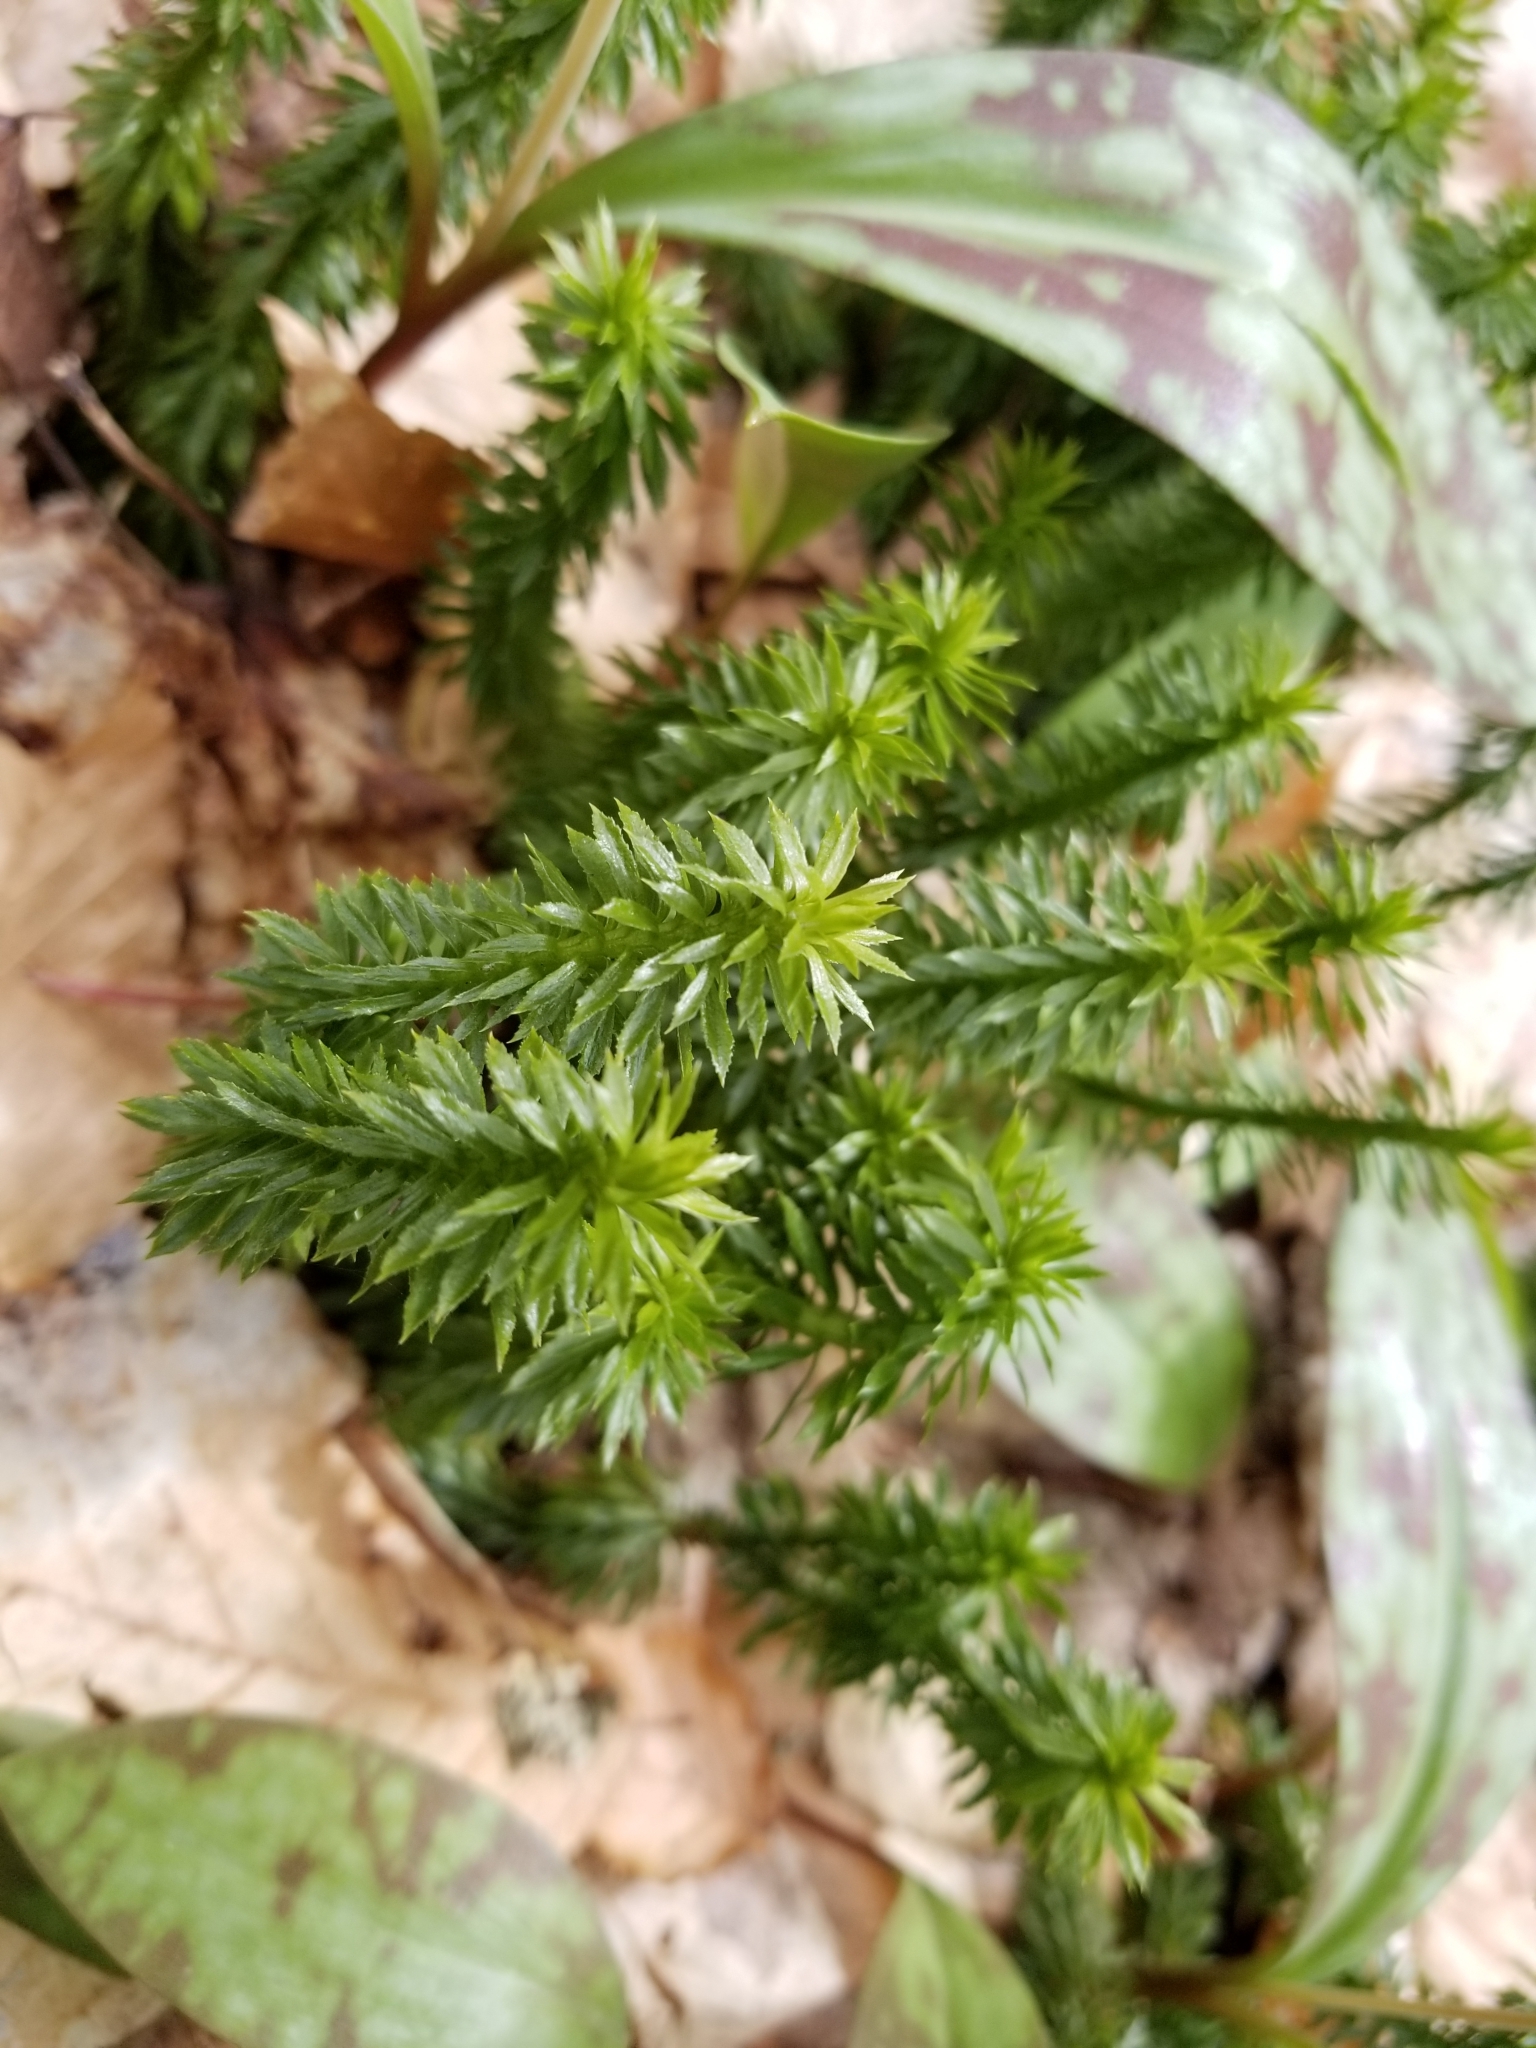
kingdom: Plantae
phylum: Tracheophyta
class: Lycopodiopsida
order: Lycopodiales
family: Lycopodiaceae
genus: Huperzia
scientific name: Huperzia lucidula
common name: Shining clubmoss
